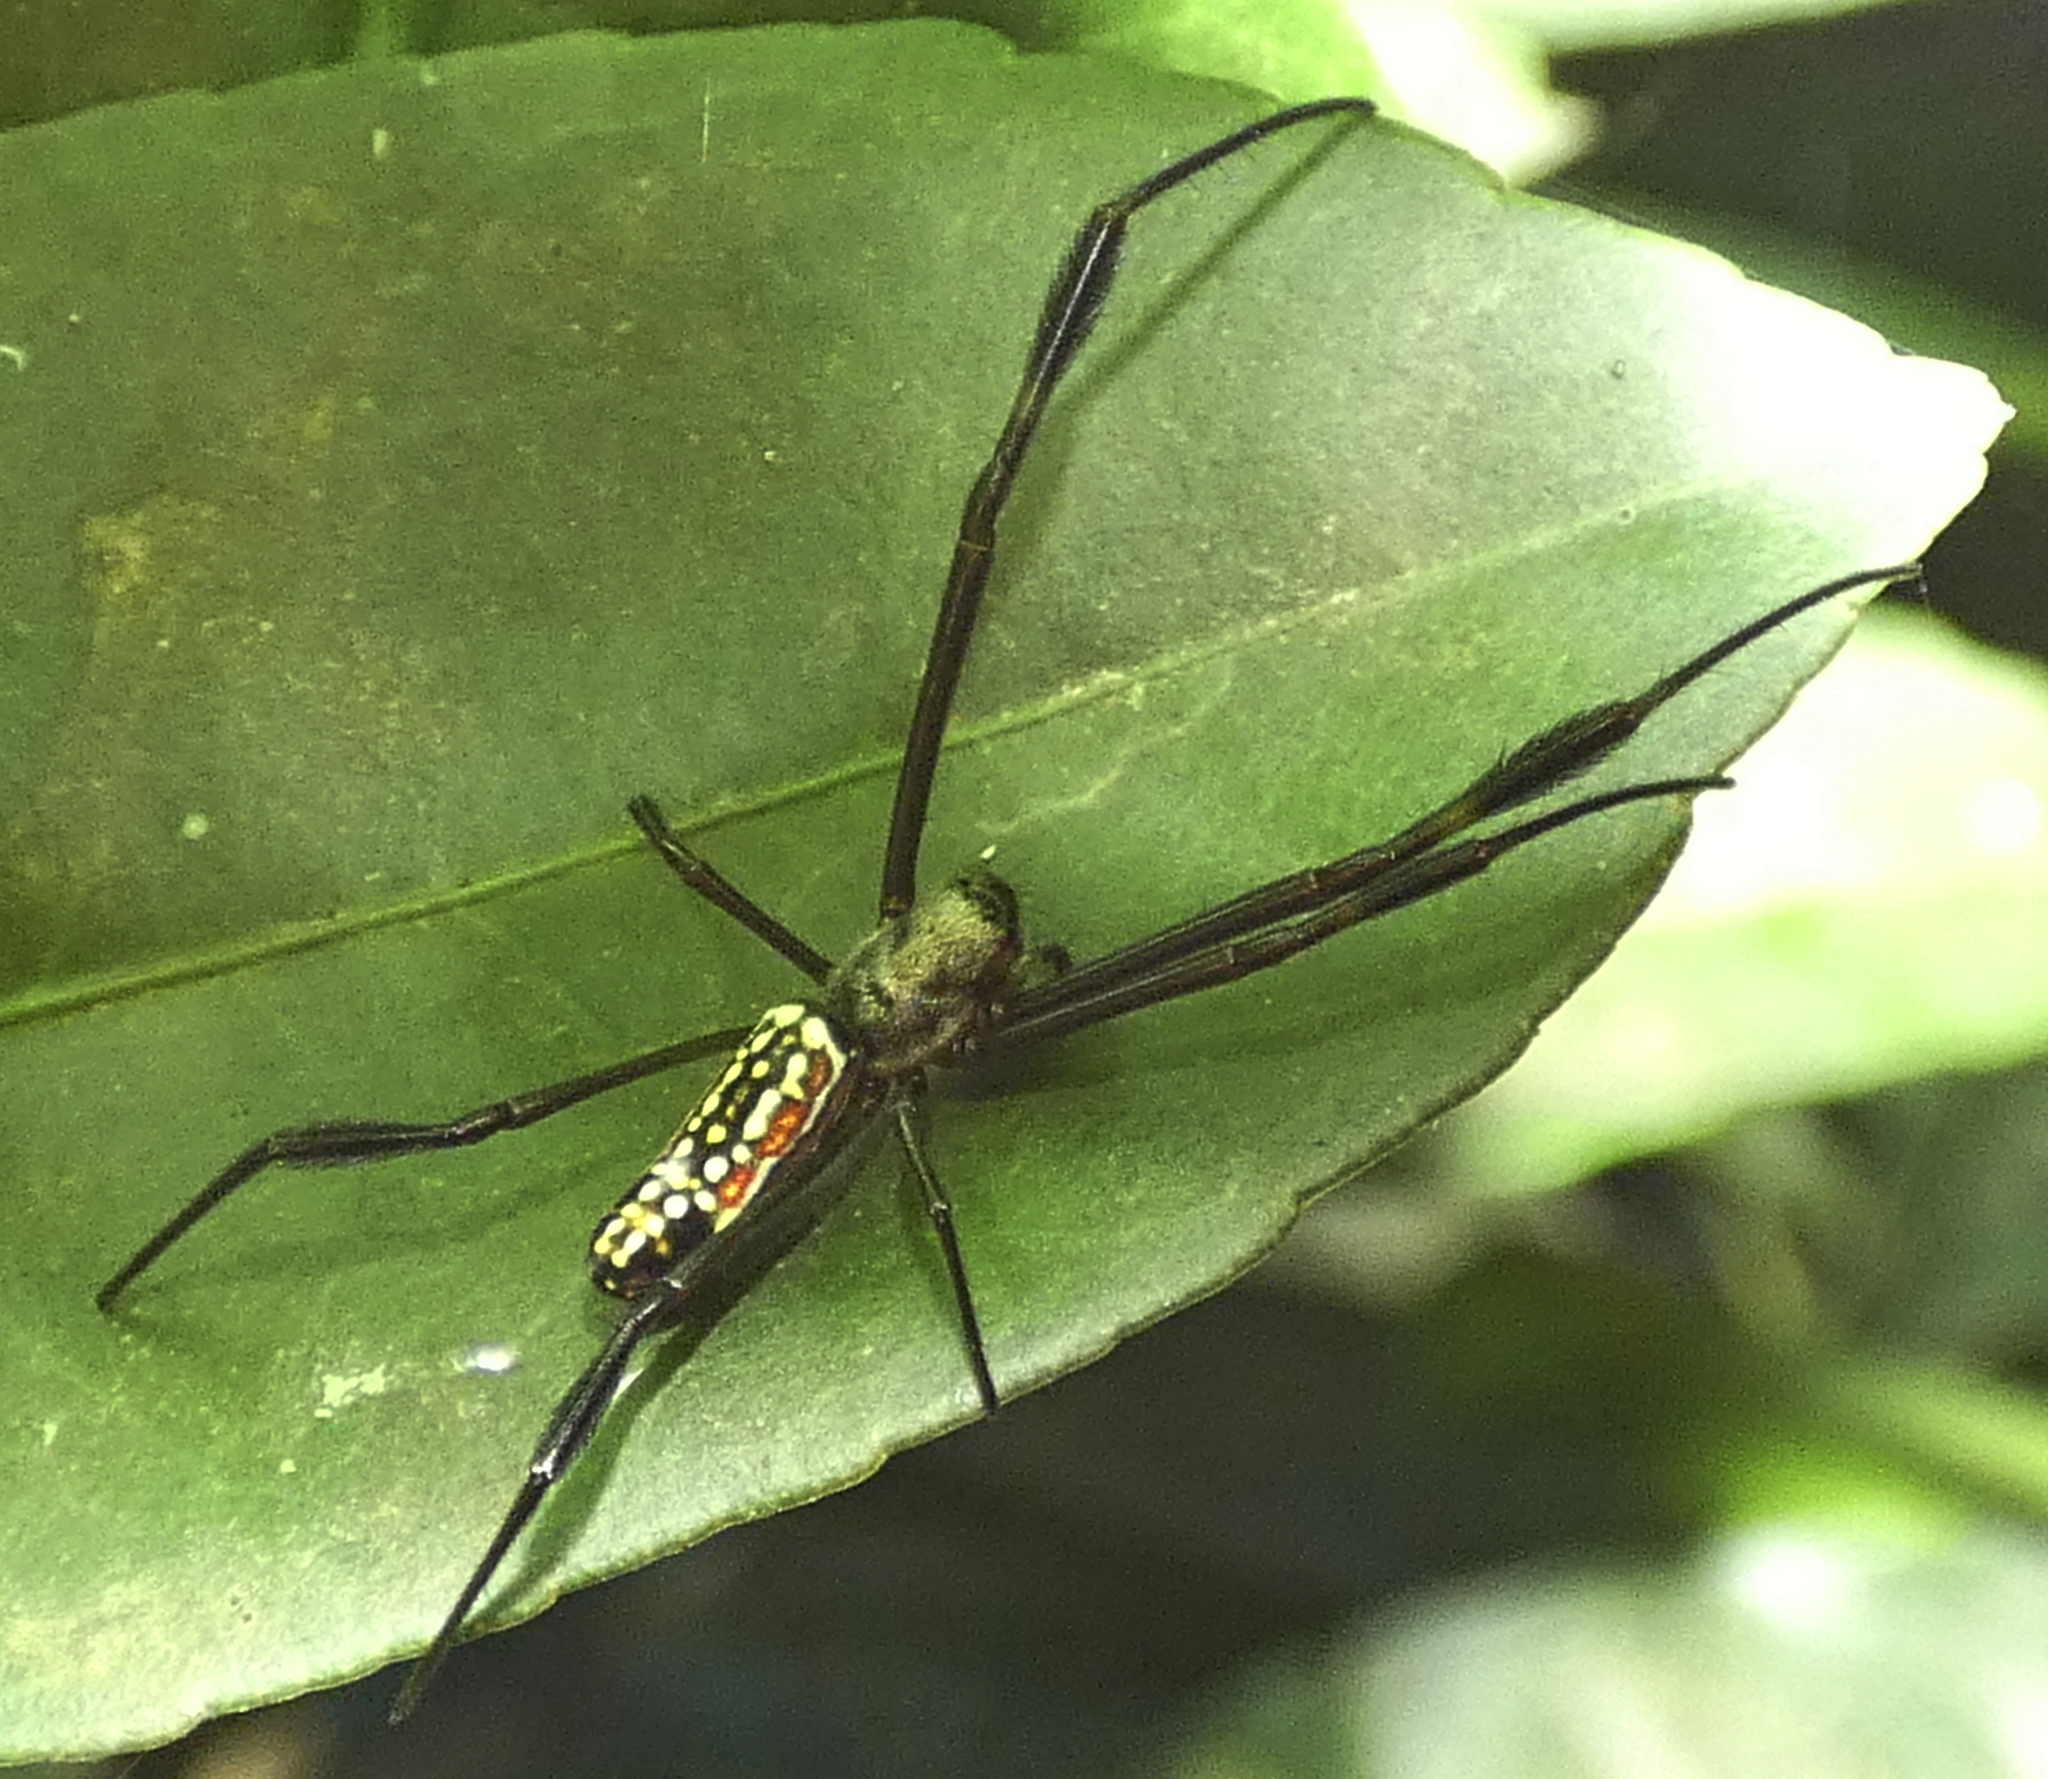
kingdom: Animalia
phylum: Arthropoda
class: Arachnida
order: Araneae
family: Araneidae
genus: Trichonephila
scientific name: Trichonephila clavipes
